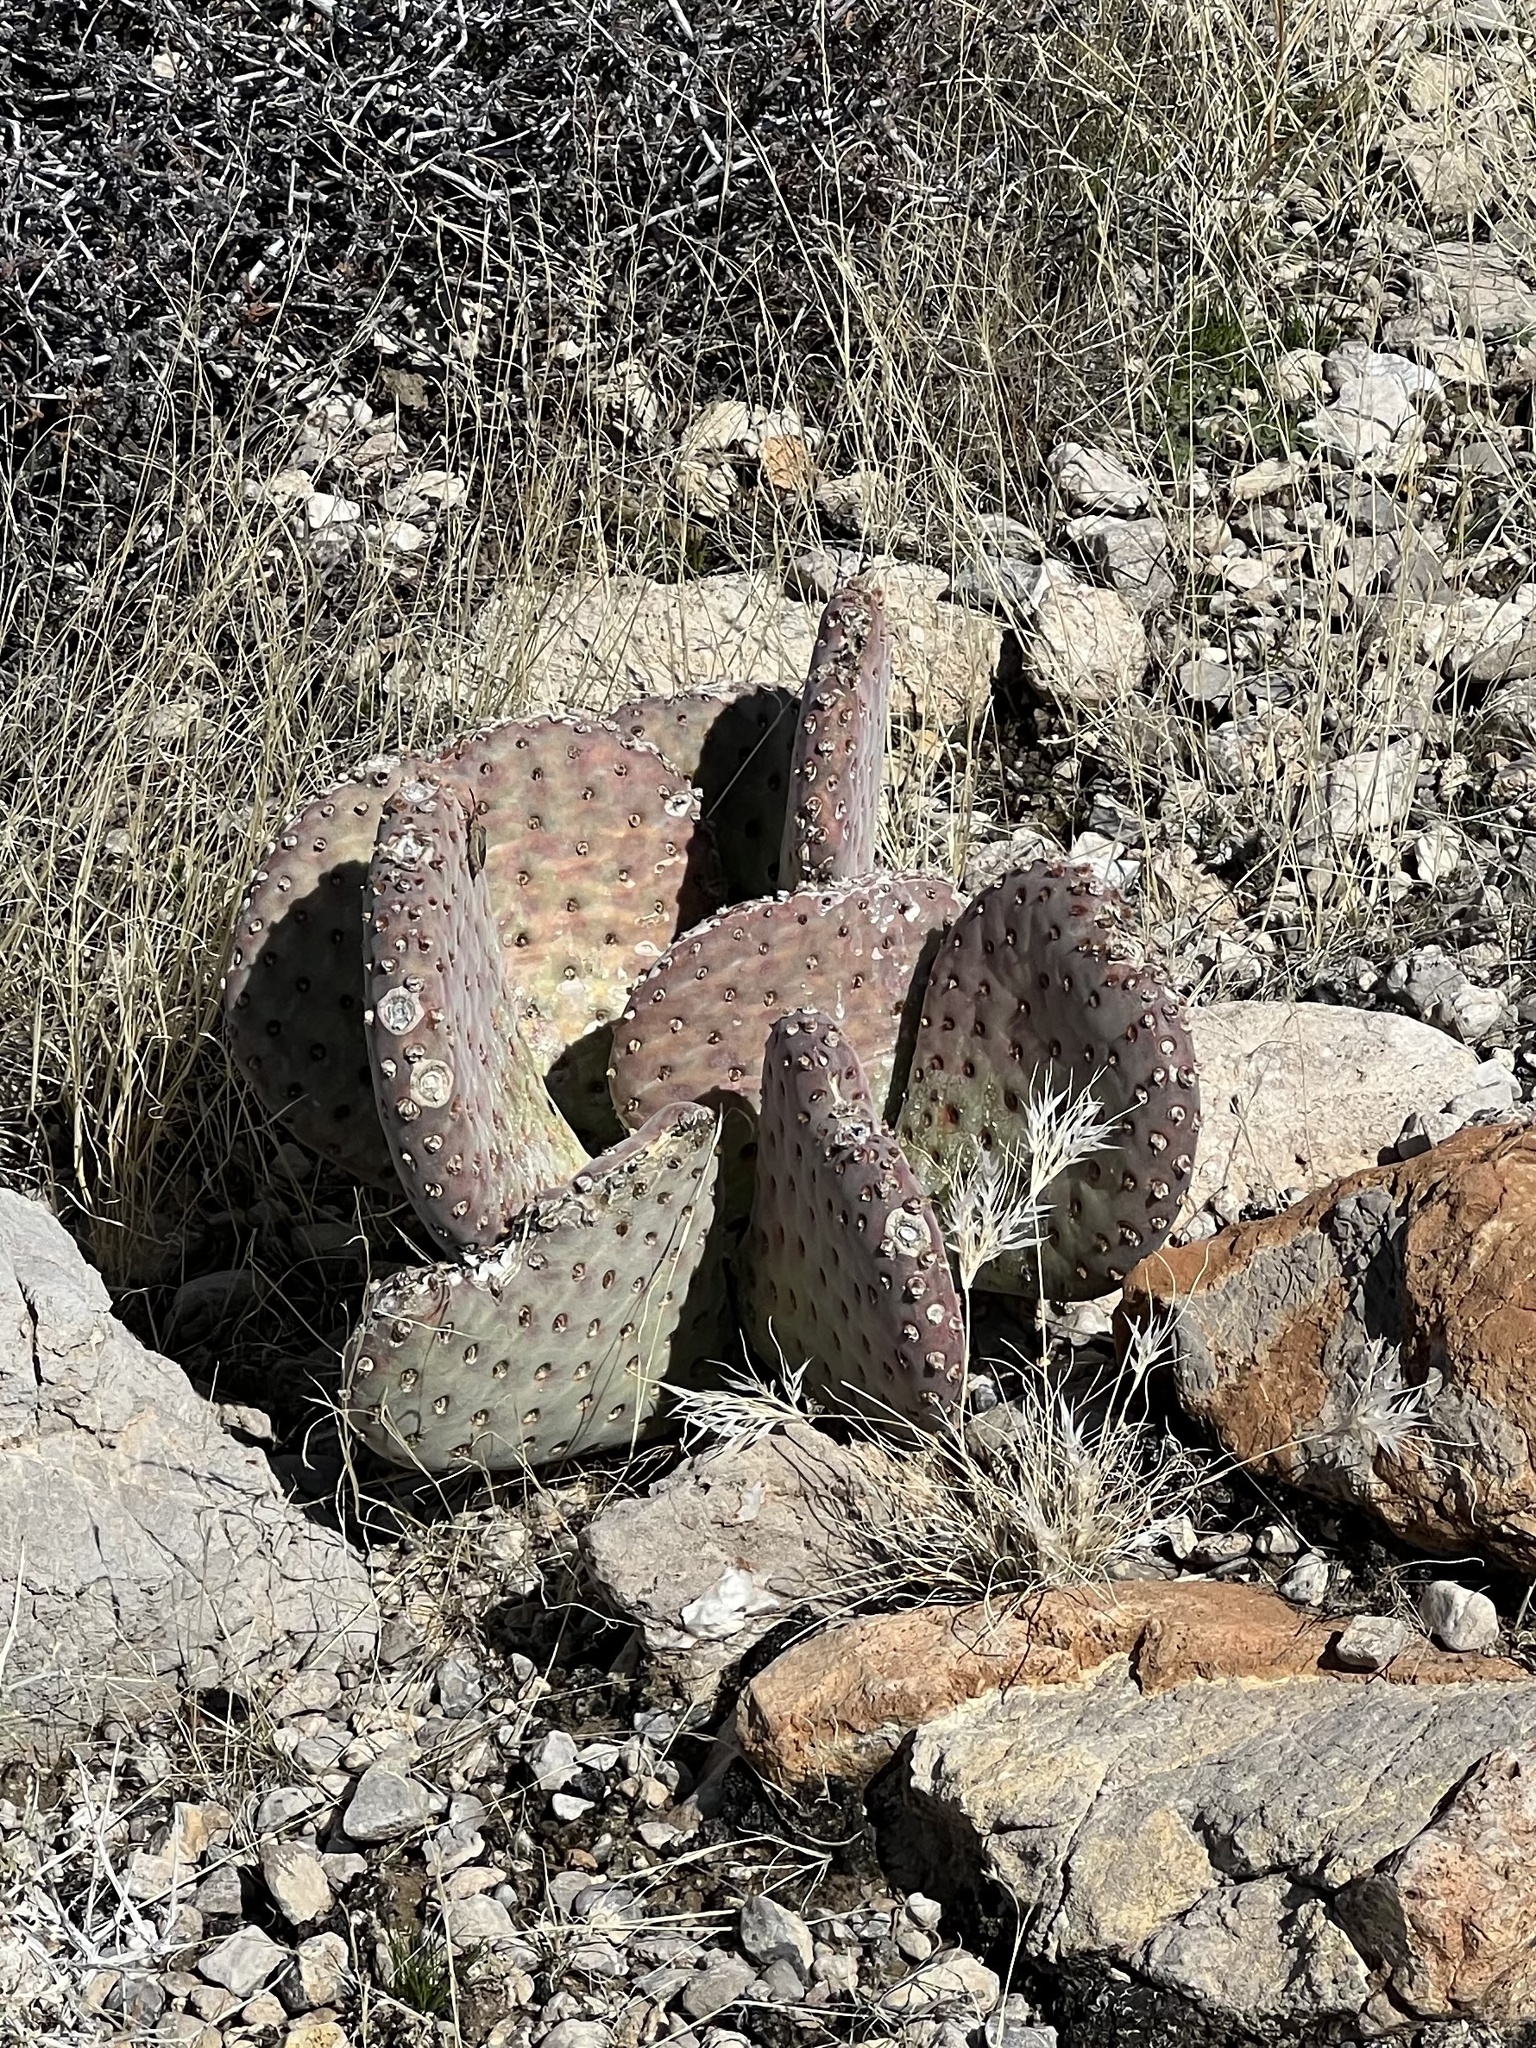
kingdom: Plantae
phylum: Tracheophyta
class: Magnoliopsida
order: Caryophyllales
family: Cactaceae
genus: Opuntia
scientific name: Opuntia basilaris
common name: Beavertail prickly-pear
